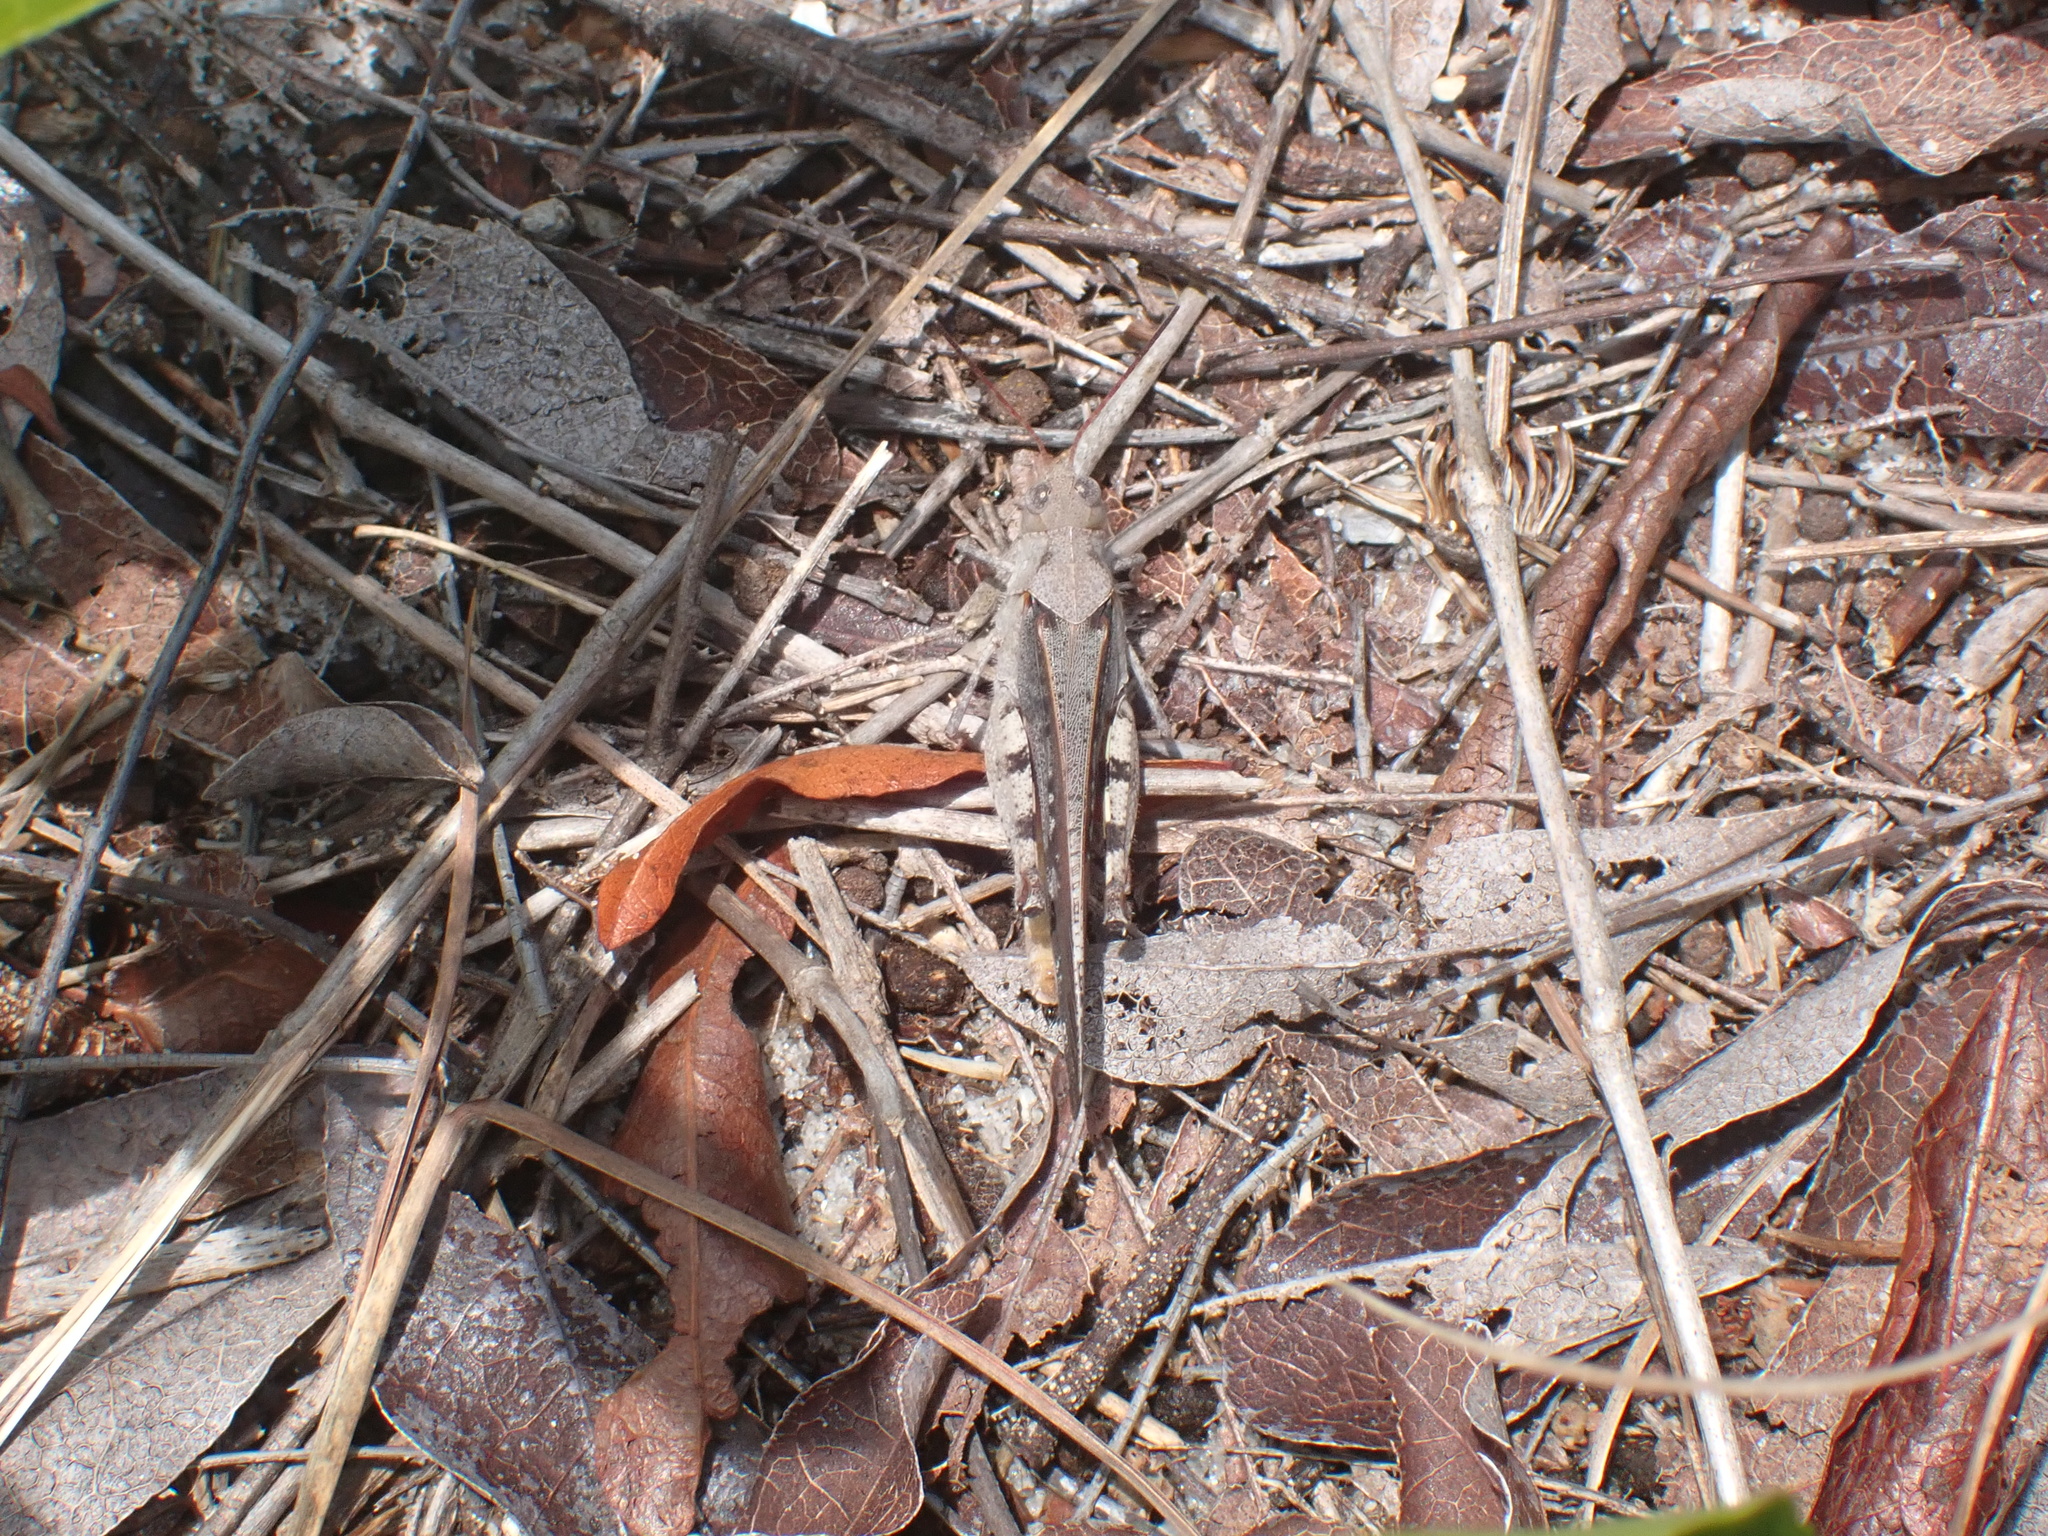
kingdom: Animalia
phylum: Arthropoda
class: Insecta
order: Orthoptera
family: Acrididae
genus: Spharagemon
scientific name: Spharagemon marmoratum
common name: Marbled grasshopper
